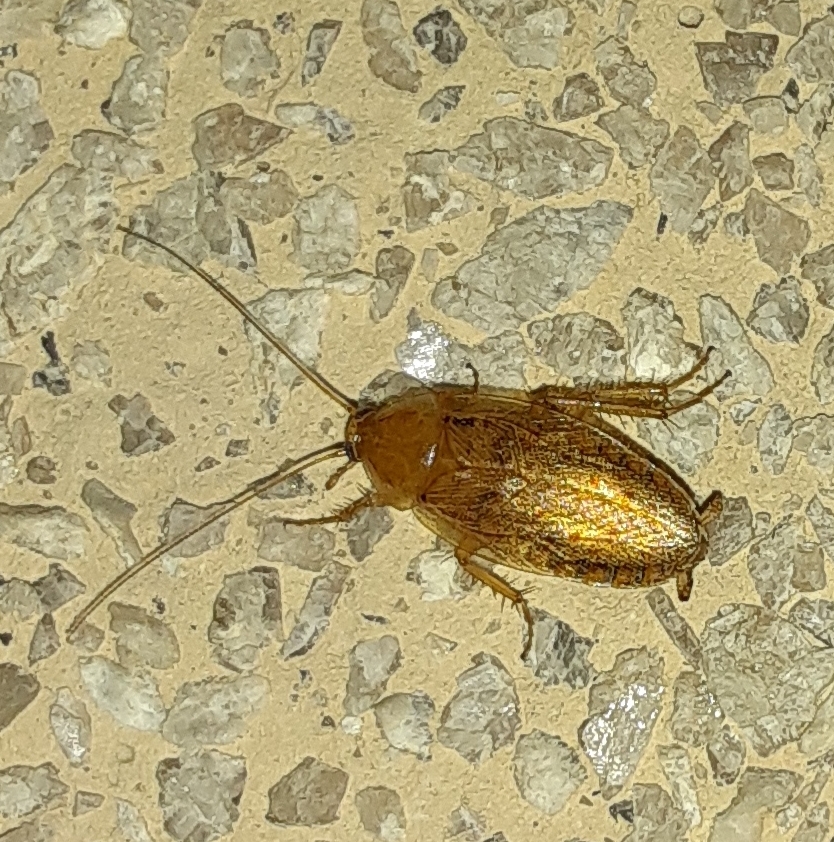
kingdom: Animalia
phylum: Arthropoda
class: Insecta
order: Blattodea
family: Ectobiidae
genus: Ectobius
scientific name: Ectobius pallidus
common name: Tawny cockroach
